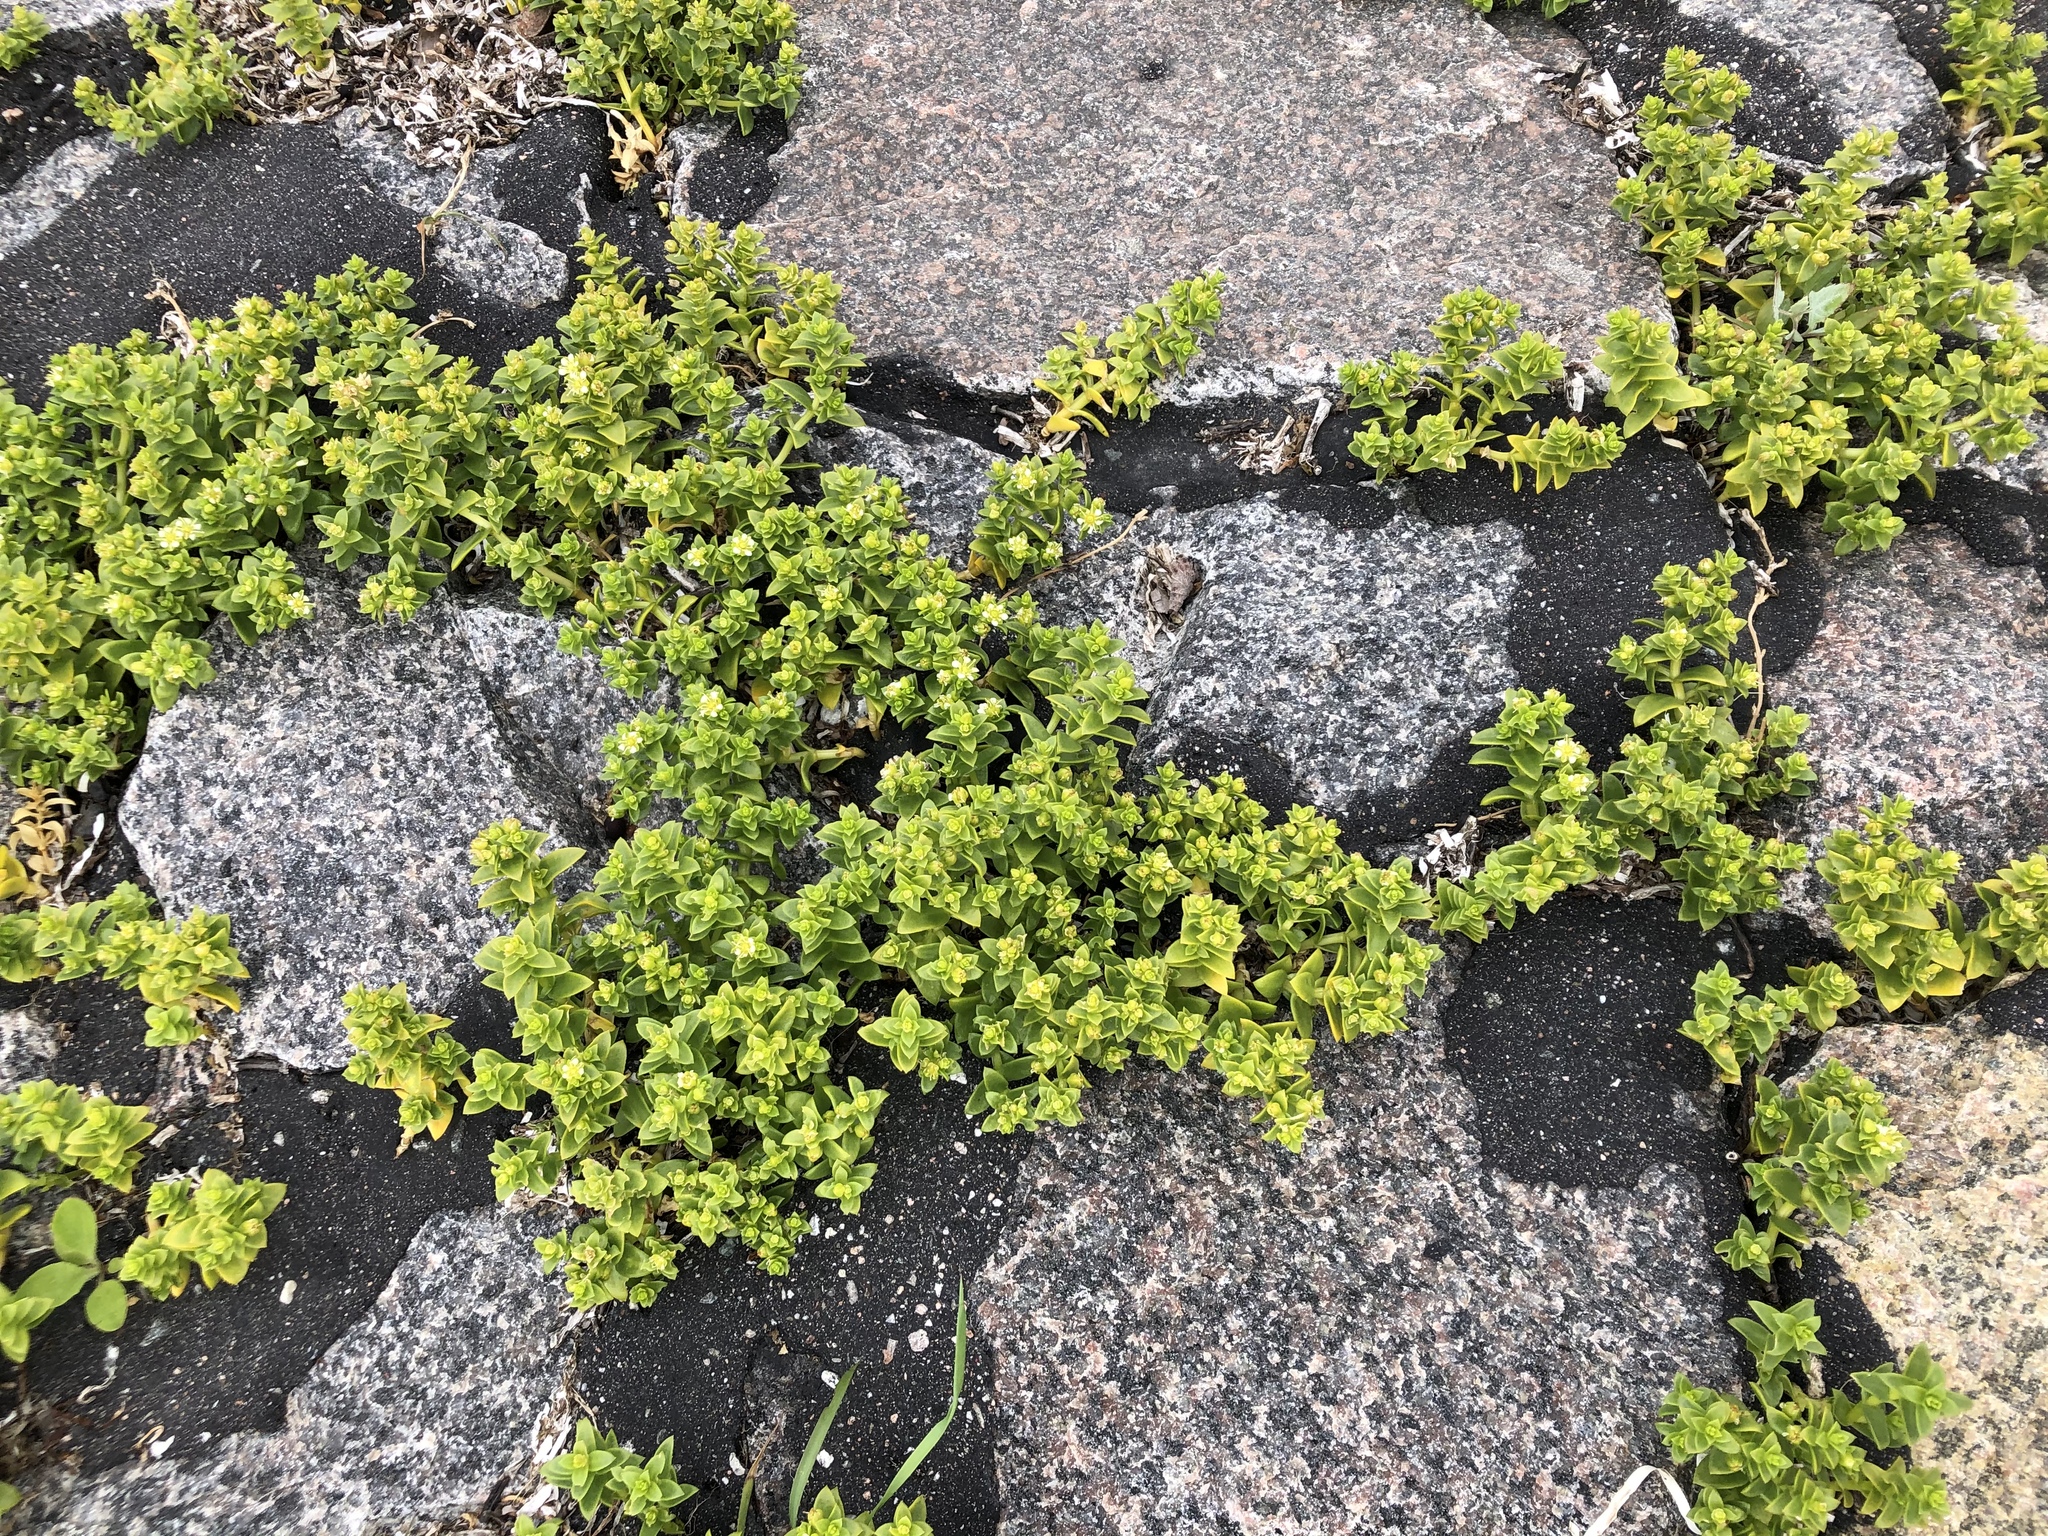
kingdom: Plantae
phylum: Tracheophyta
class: Magnoliopsida
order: Caryophyllales
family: Caryophyllaceae
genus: Honckenya
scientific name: Honckenya peploides
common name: Sea sandwort
